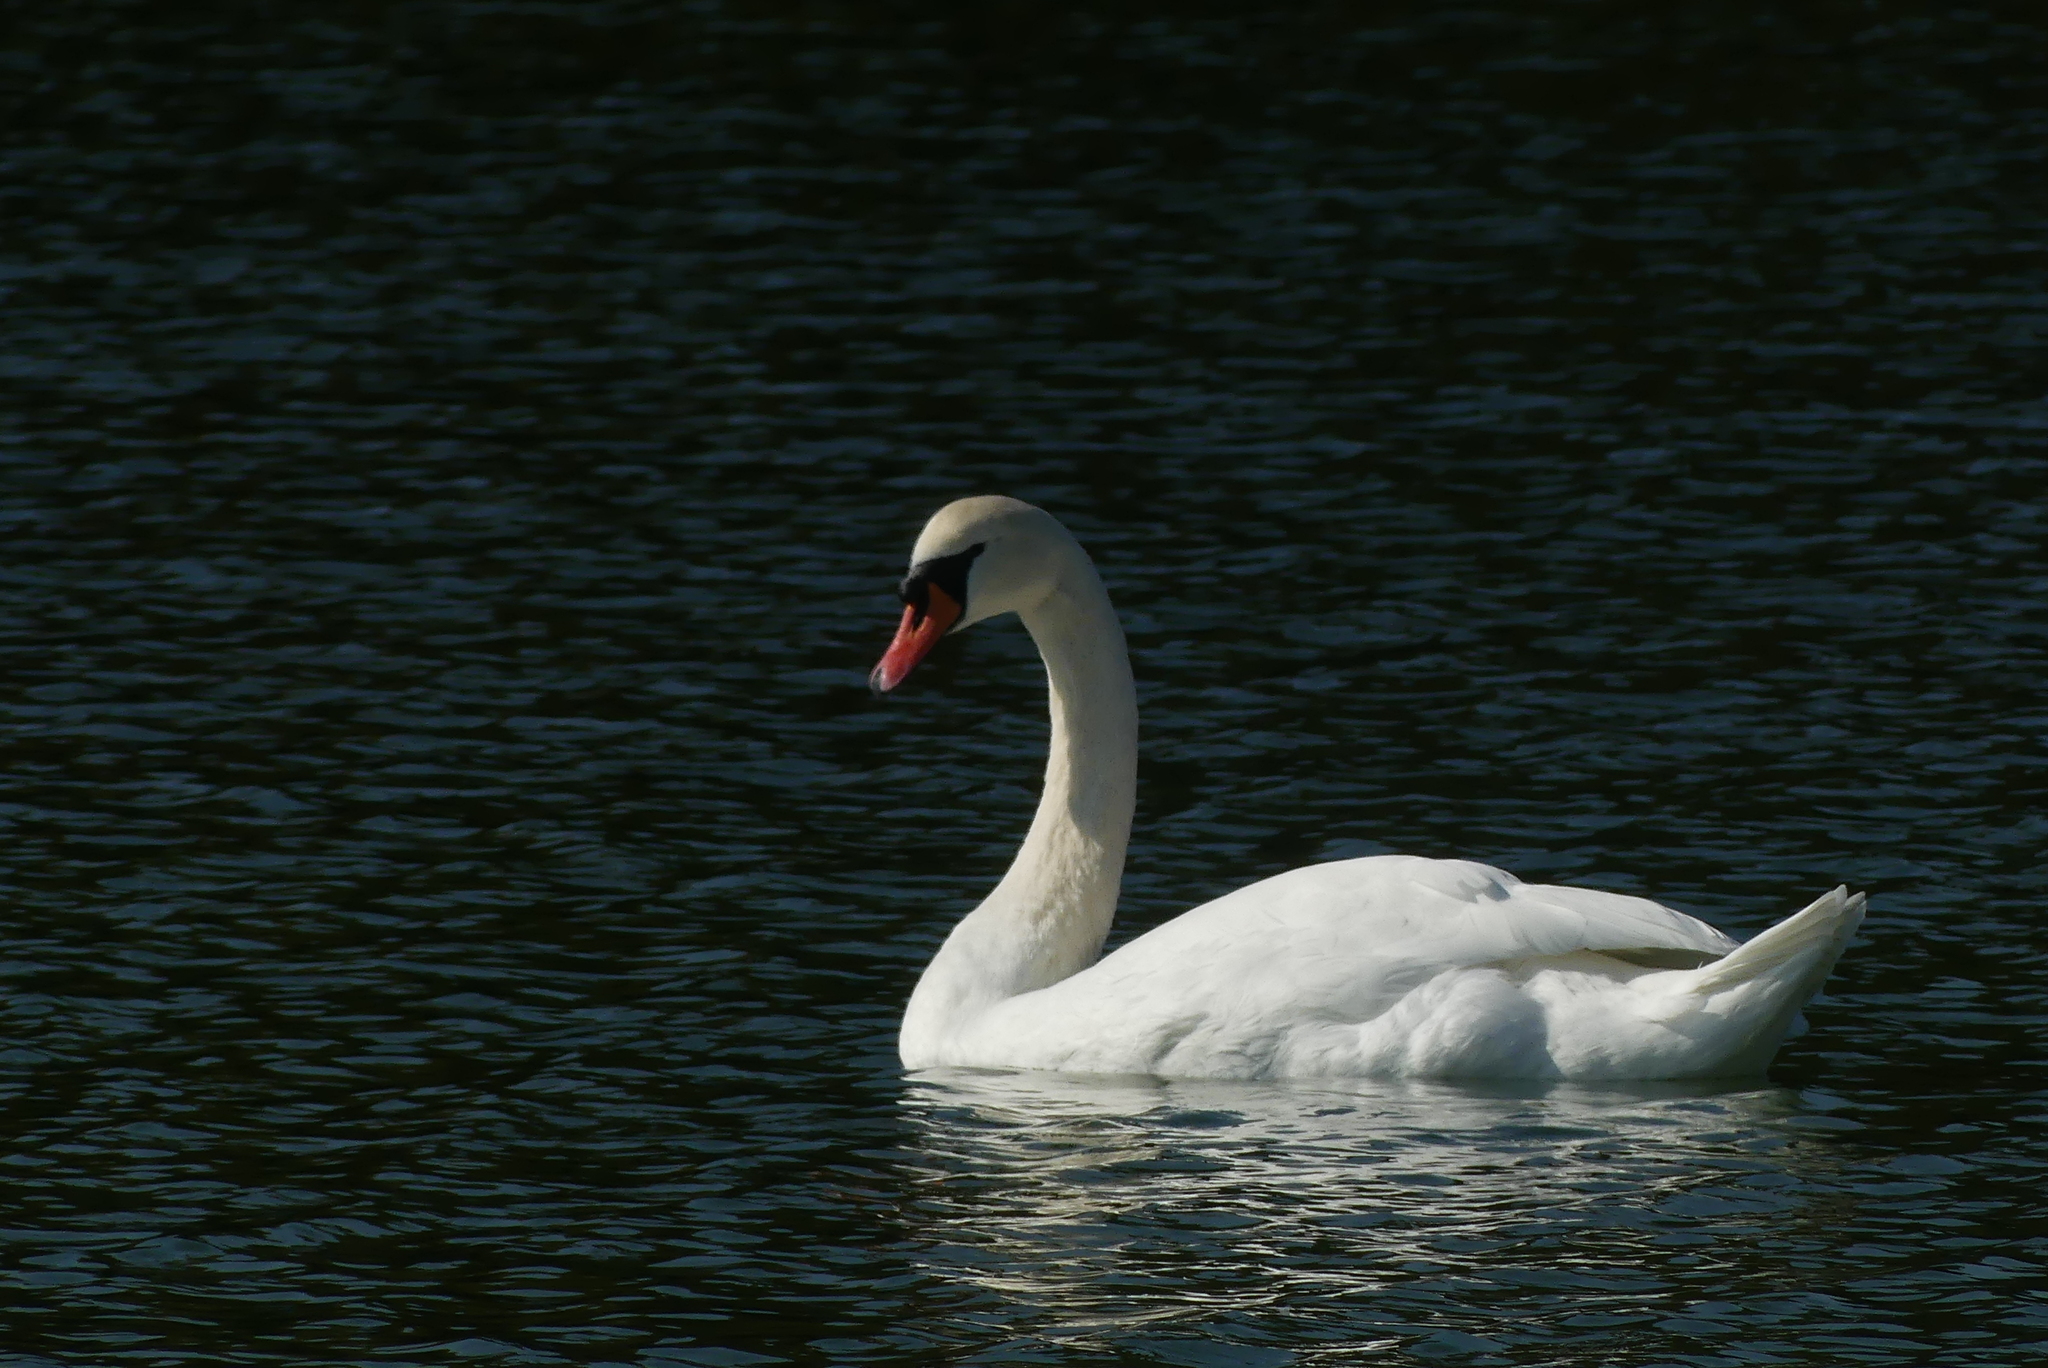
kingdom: Animalia
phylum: Chordata
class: Aves
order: Anseriformes
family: Anatidae
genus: Cygnus
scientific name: Cygnus olor
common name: Mute swan
